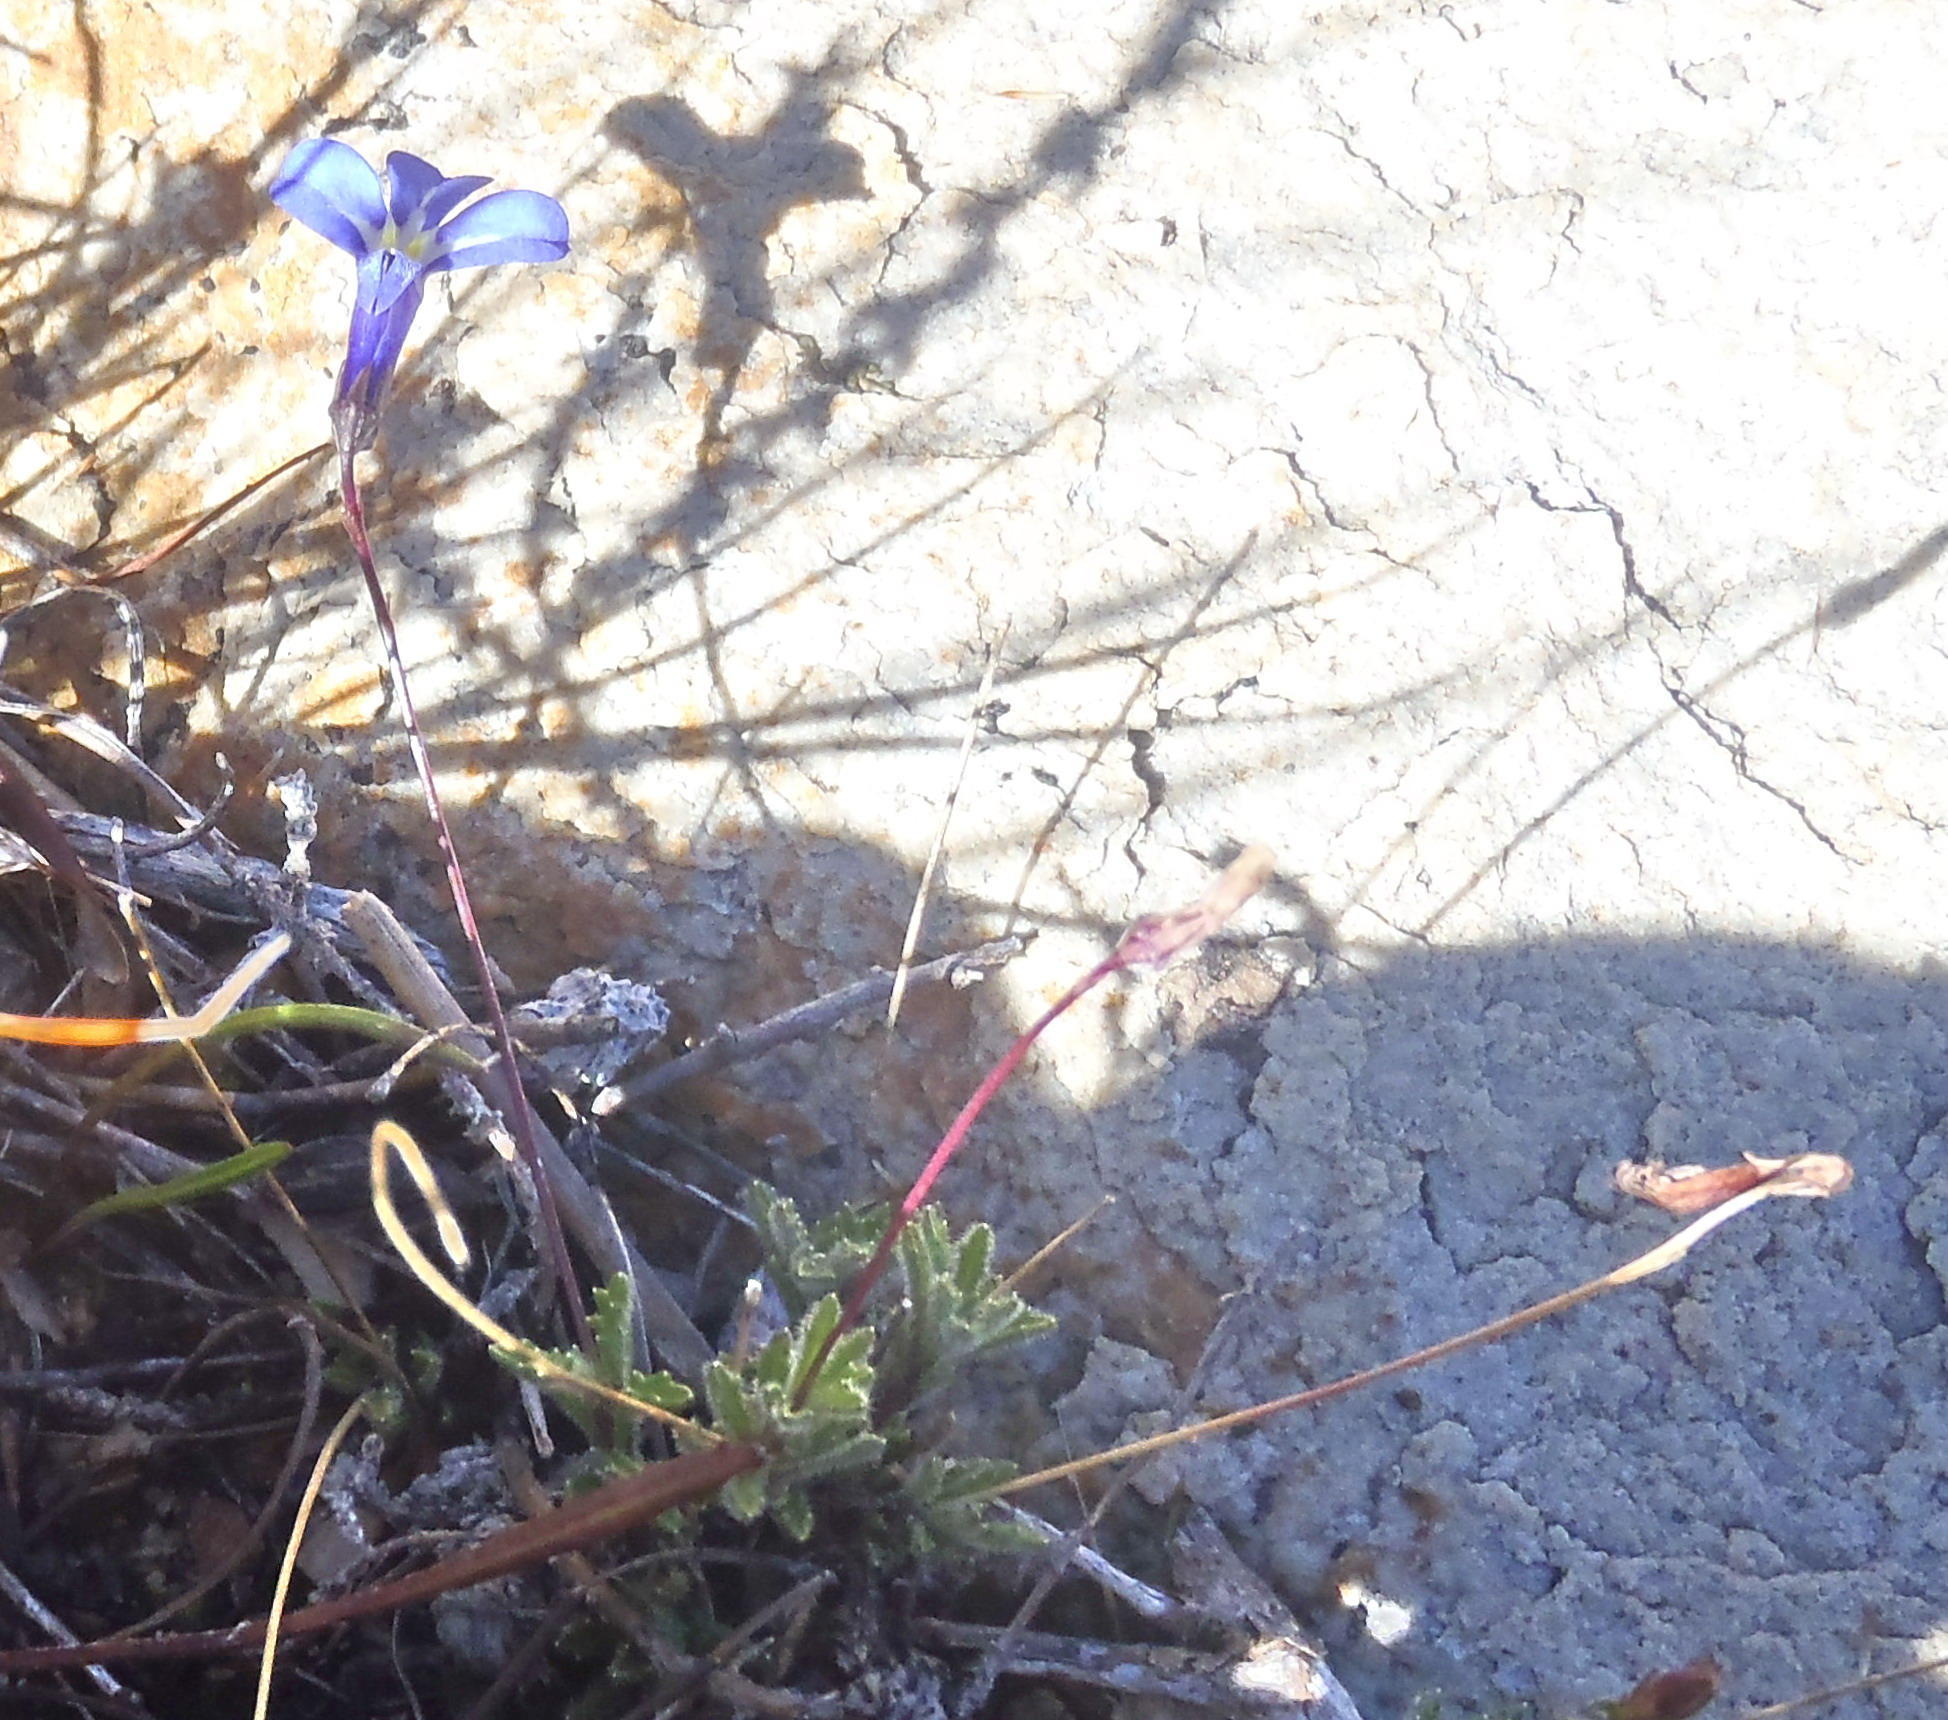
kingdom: Plantae
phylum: Tracheophyta
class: Magnoliopsida
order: Asterales
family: Campanulaceae
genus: Lobelia
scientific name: Lobelia tomentosa
